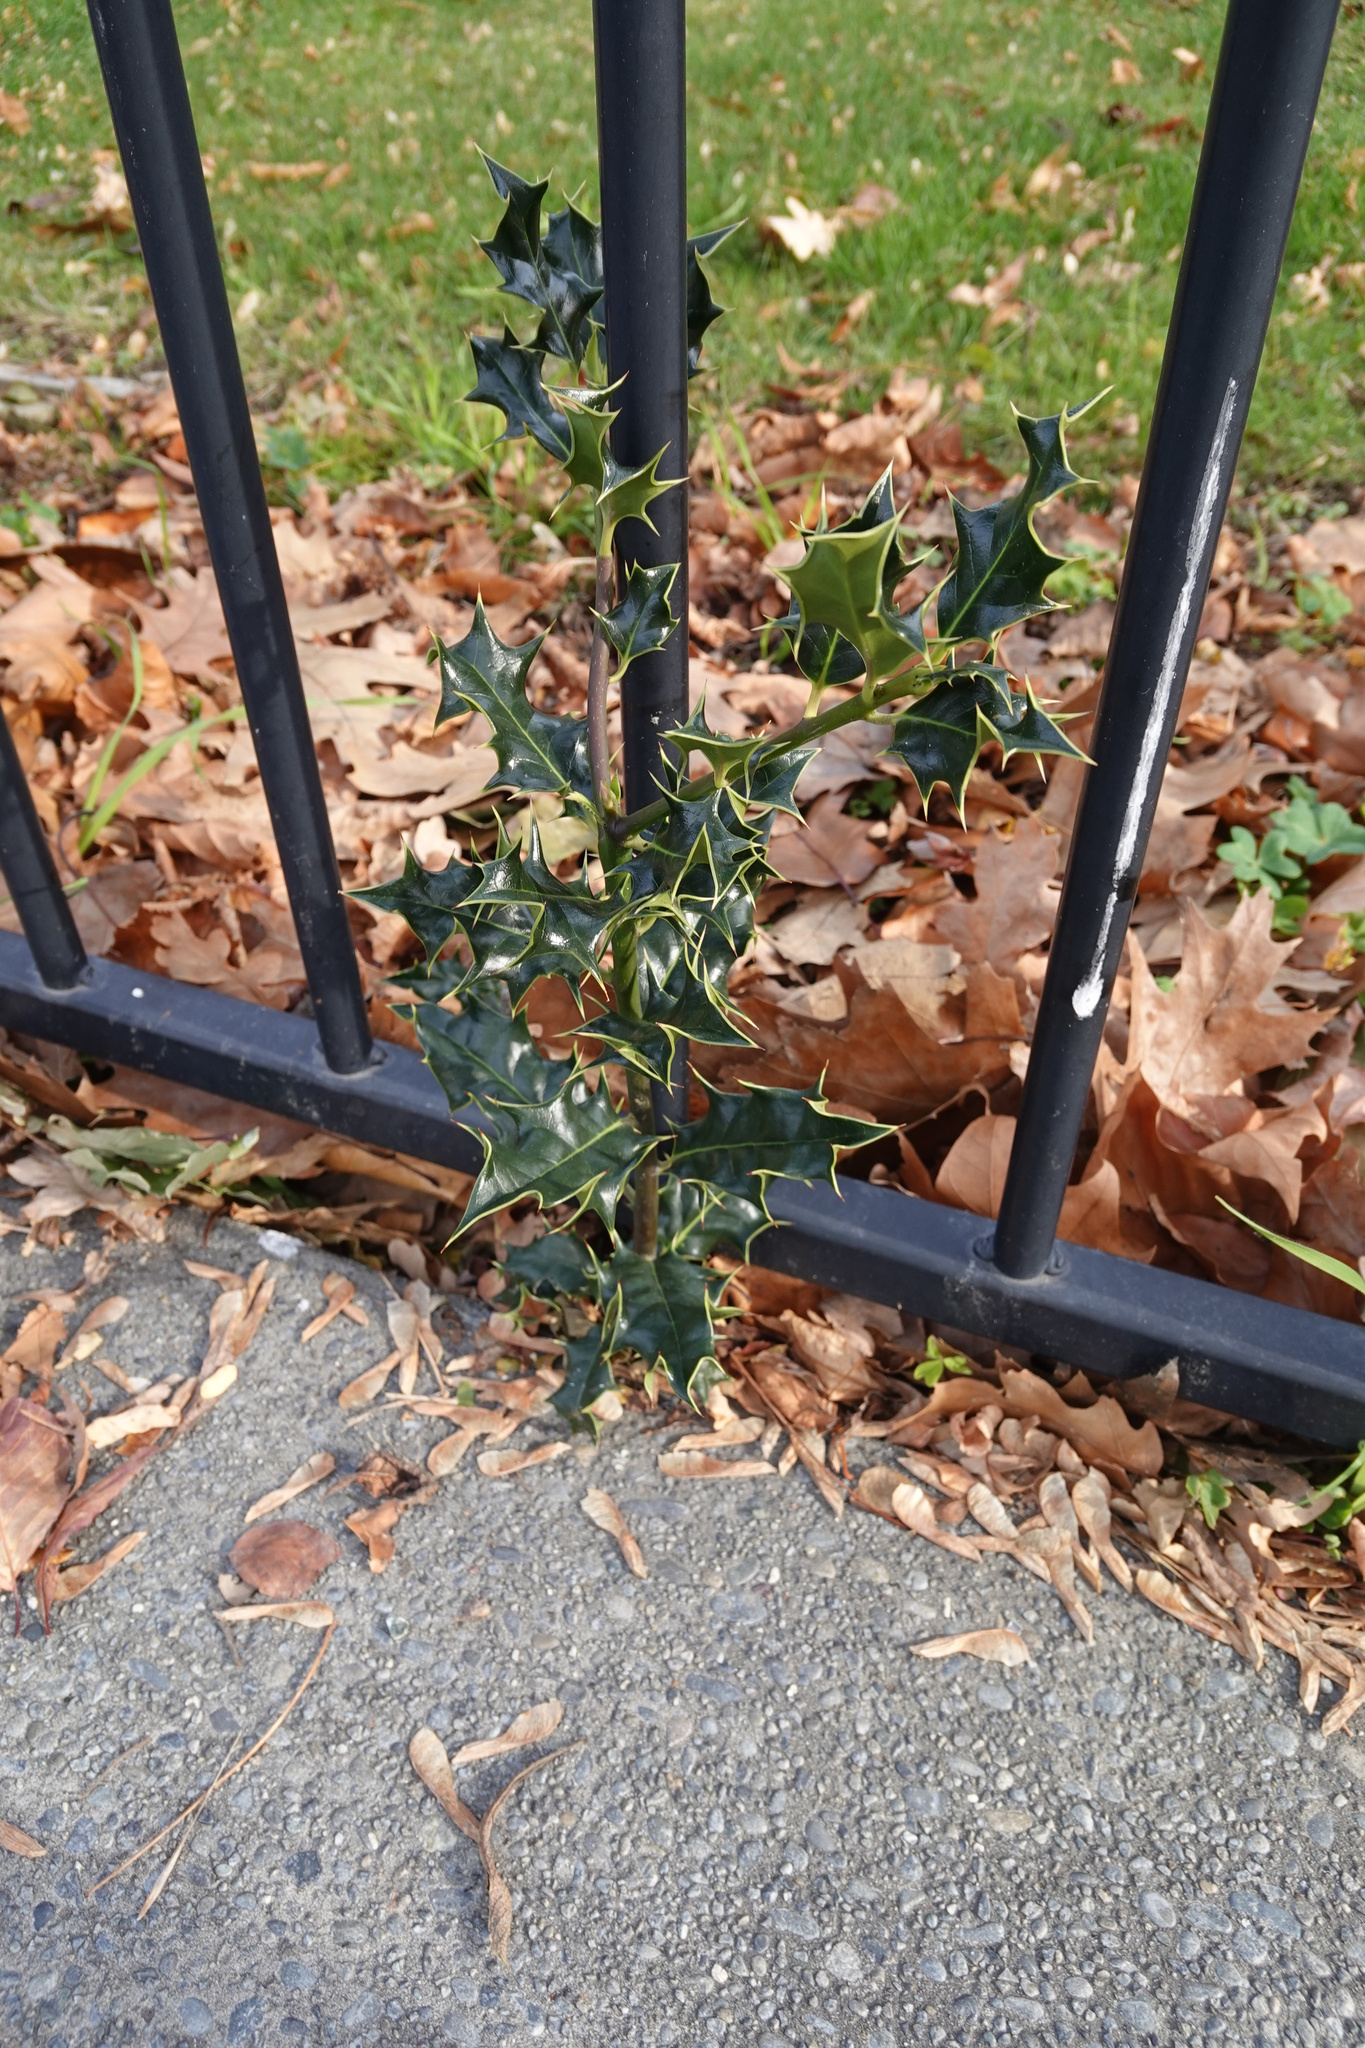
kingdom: Plantae
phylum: Tracheophyta
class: Magnoliopsida
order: Aquifoliales
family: Aquifoliaceae
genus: Ilex
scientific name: Ilex aquifolium
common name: English holly
